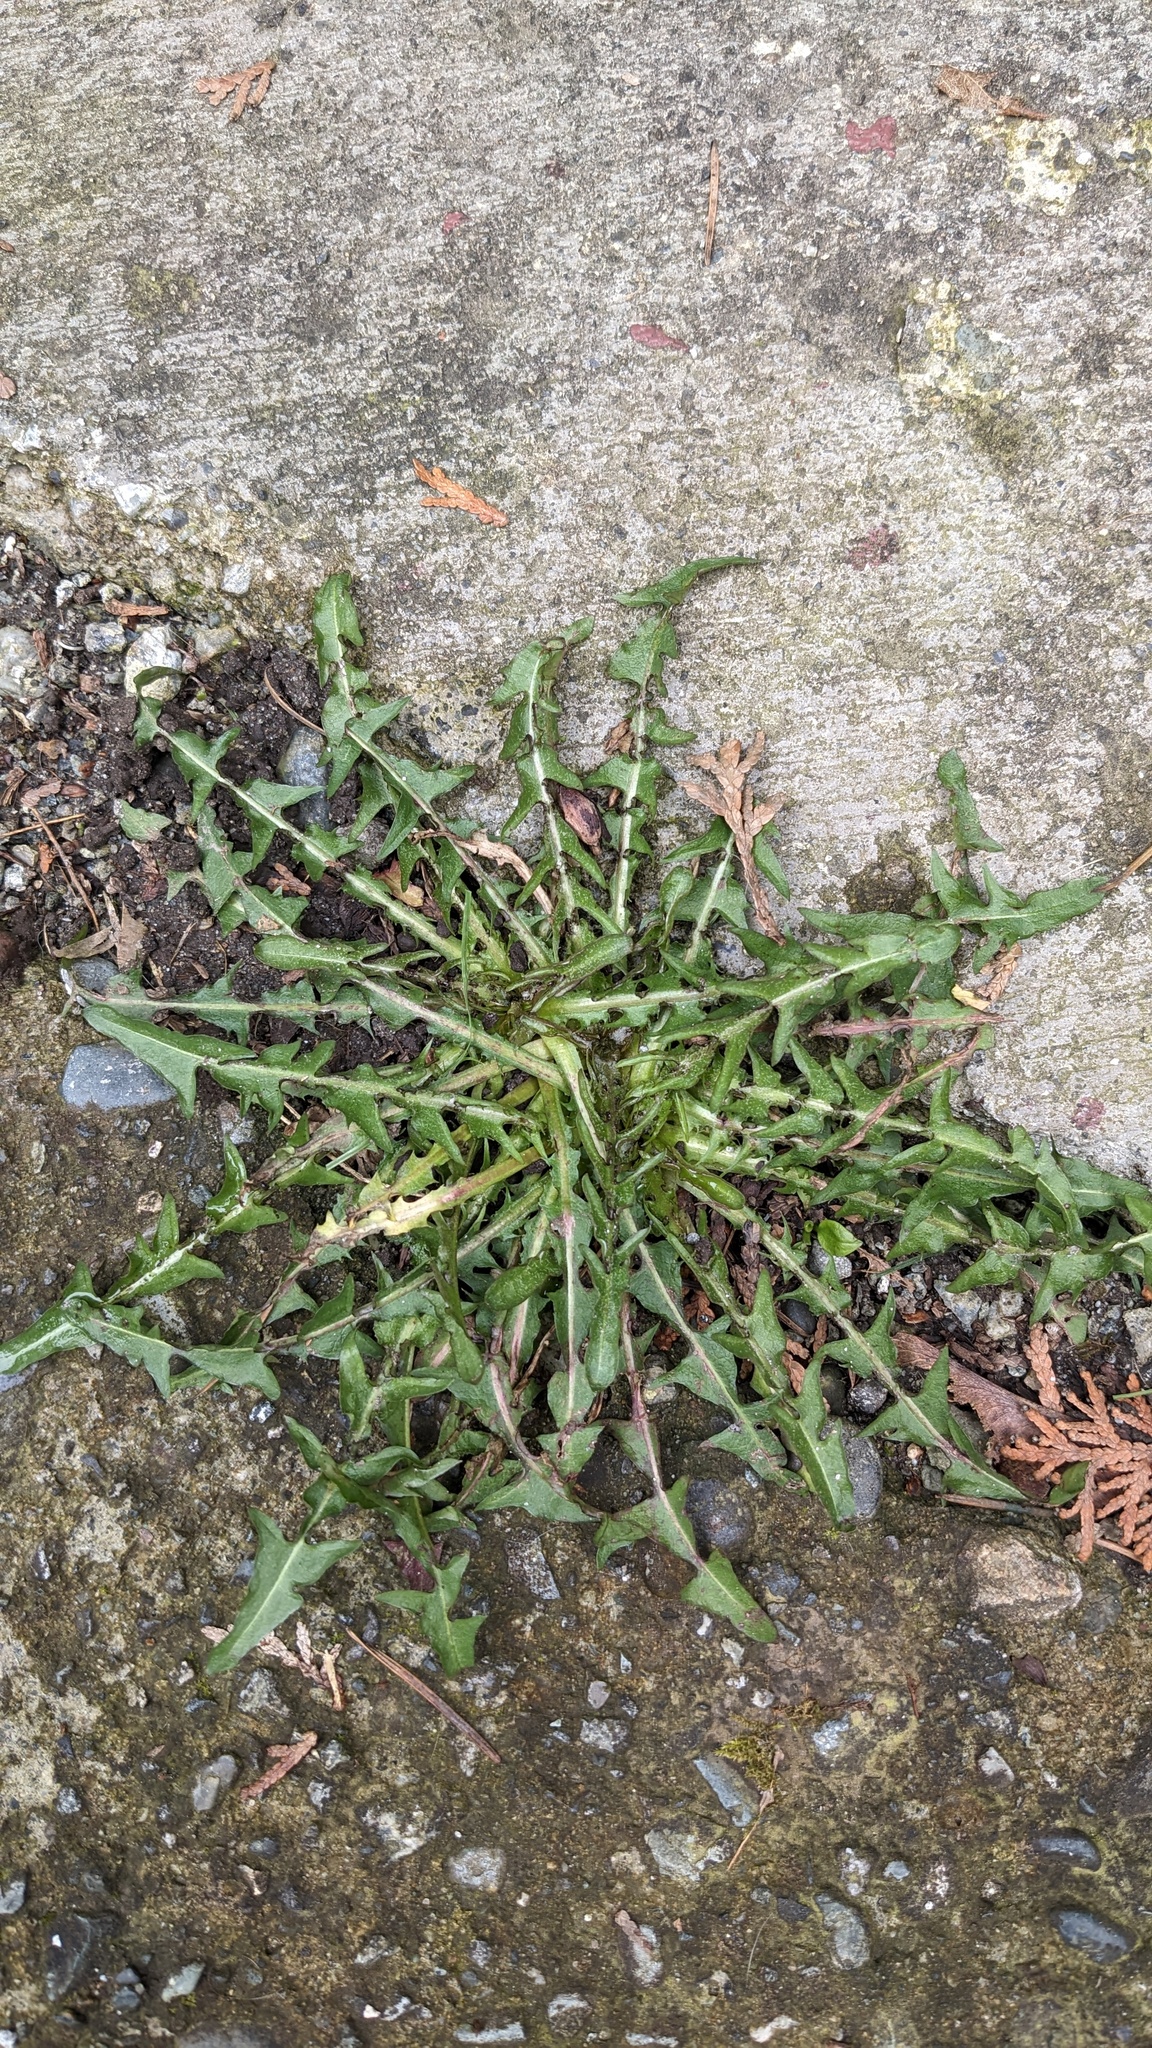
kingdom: Plantae
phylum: Tracheophyta
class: Magnoliopsida
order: Asterales
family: Asteraceae
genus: Taraxacum
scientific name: Taraxacum erythrospermum
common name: Rock dandelion
